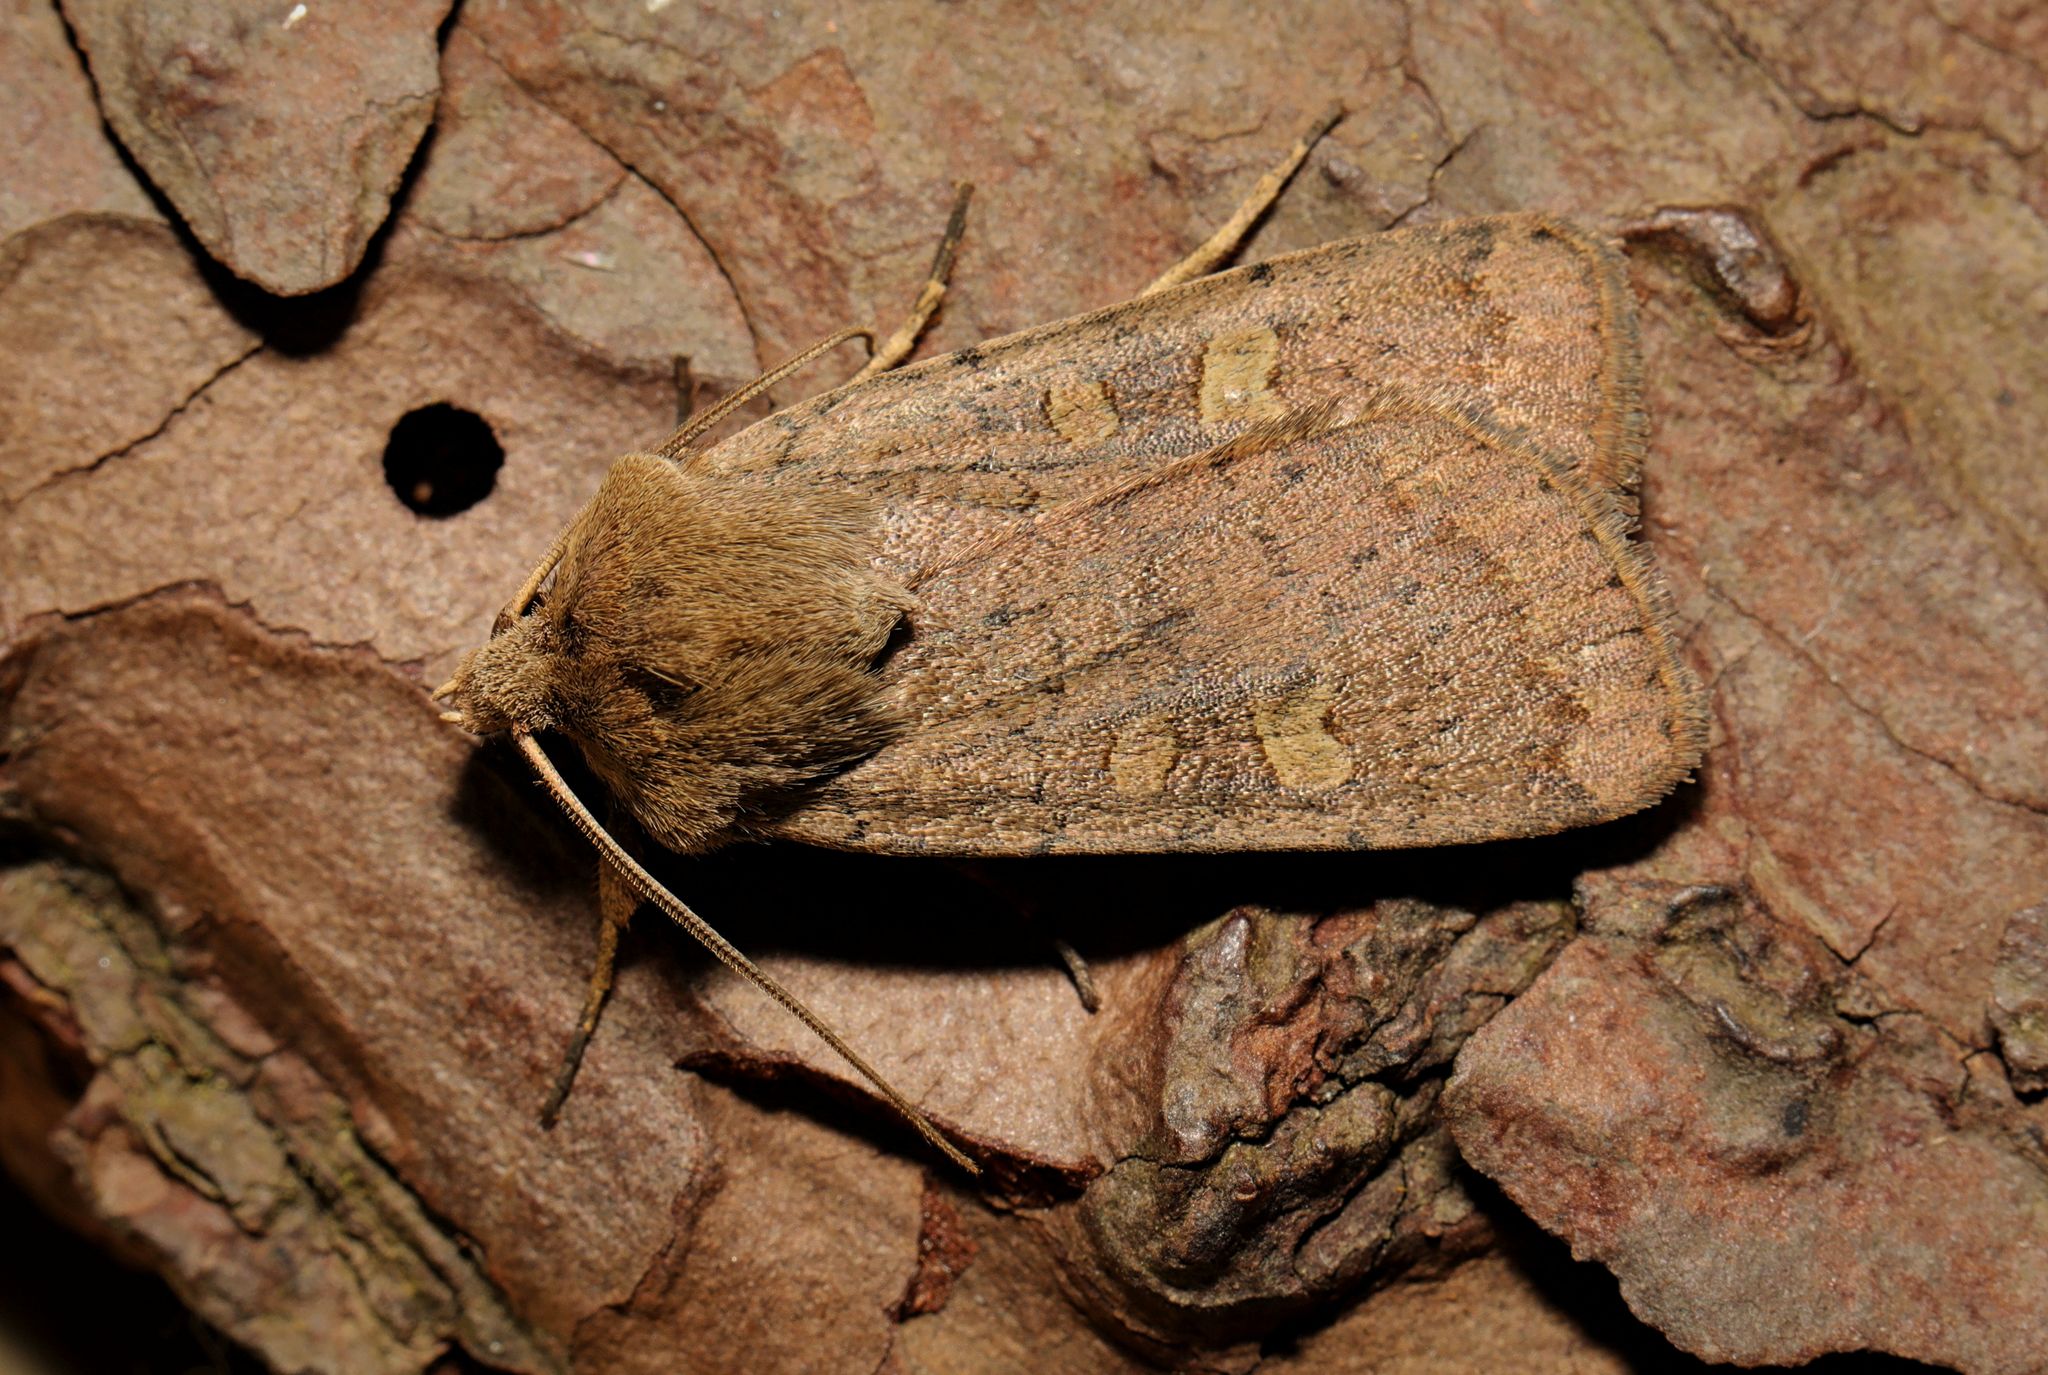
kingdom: Animalia
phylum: Arthropoda
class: Insecta
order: Lepidoptera
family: Noctuidae
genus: Xestia
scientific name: Xestia xanthographa
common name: Square-spot rustic
